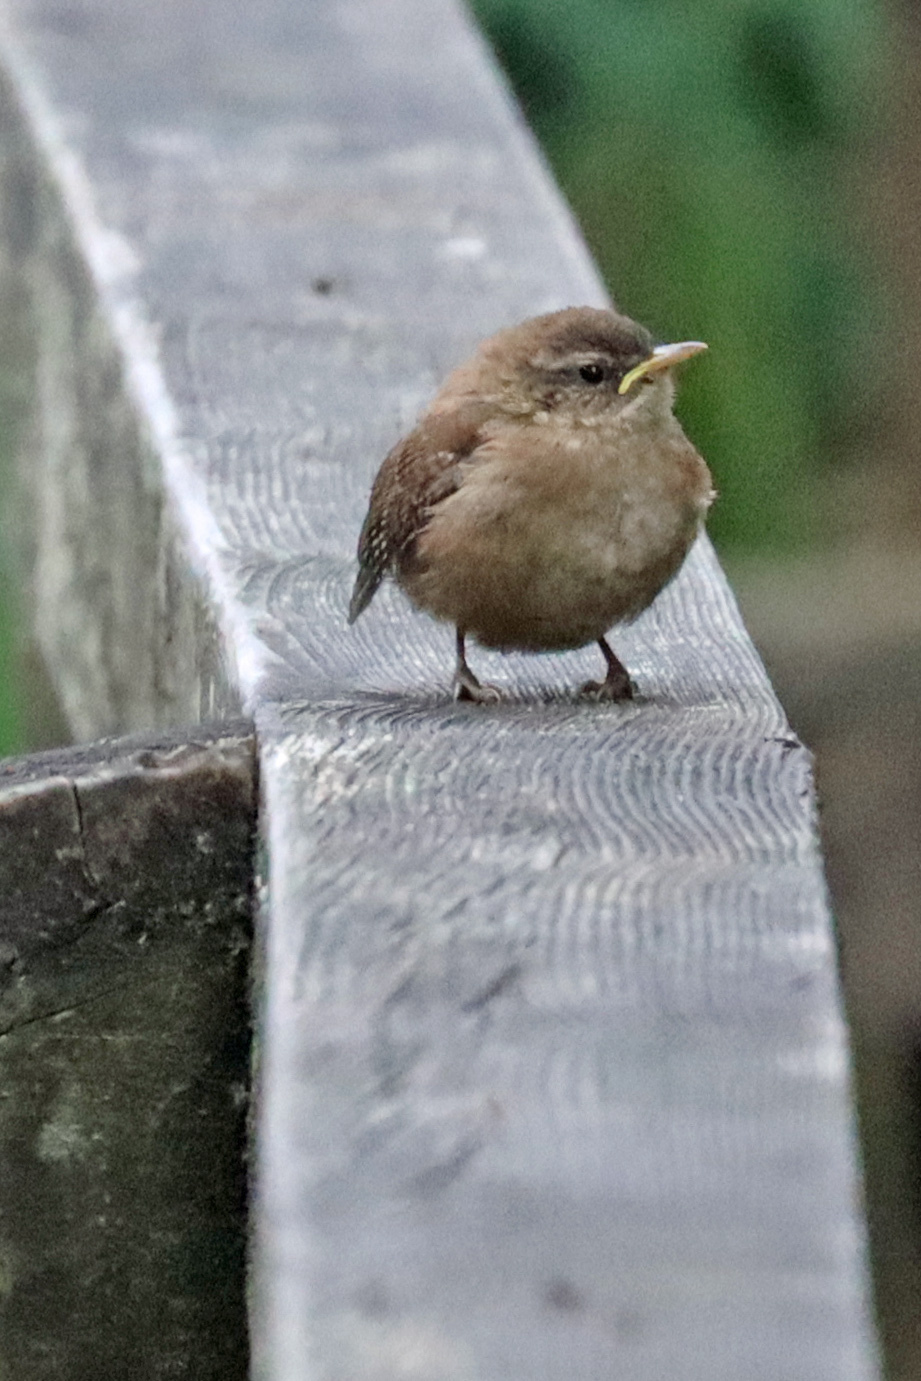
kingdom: Animalia
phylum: Chordata
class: Aves
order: Passeriformes
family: Troglodytidae
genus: Troglodytes
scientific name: Troglodytes troglodytes
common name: Eurasian wren
